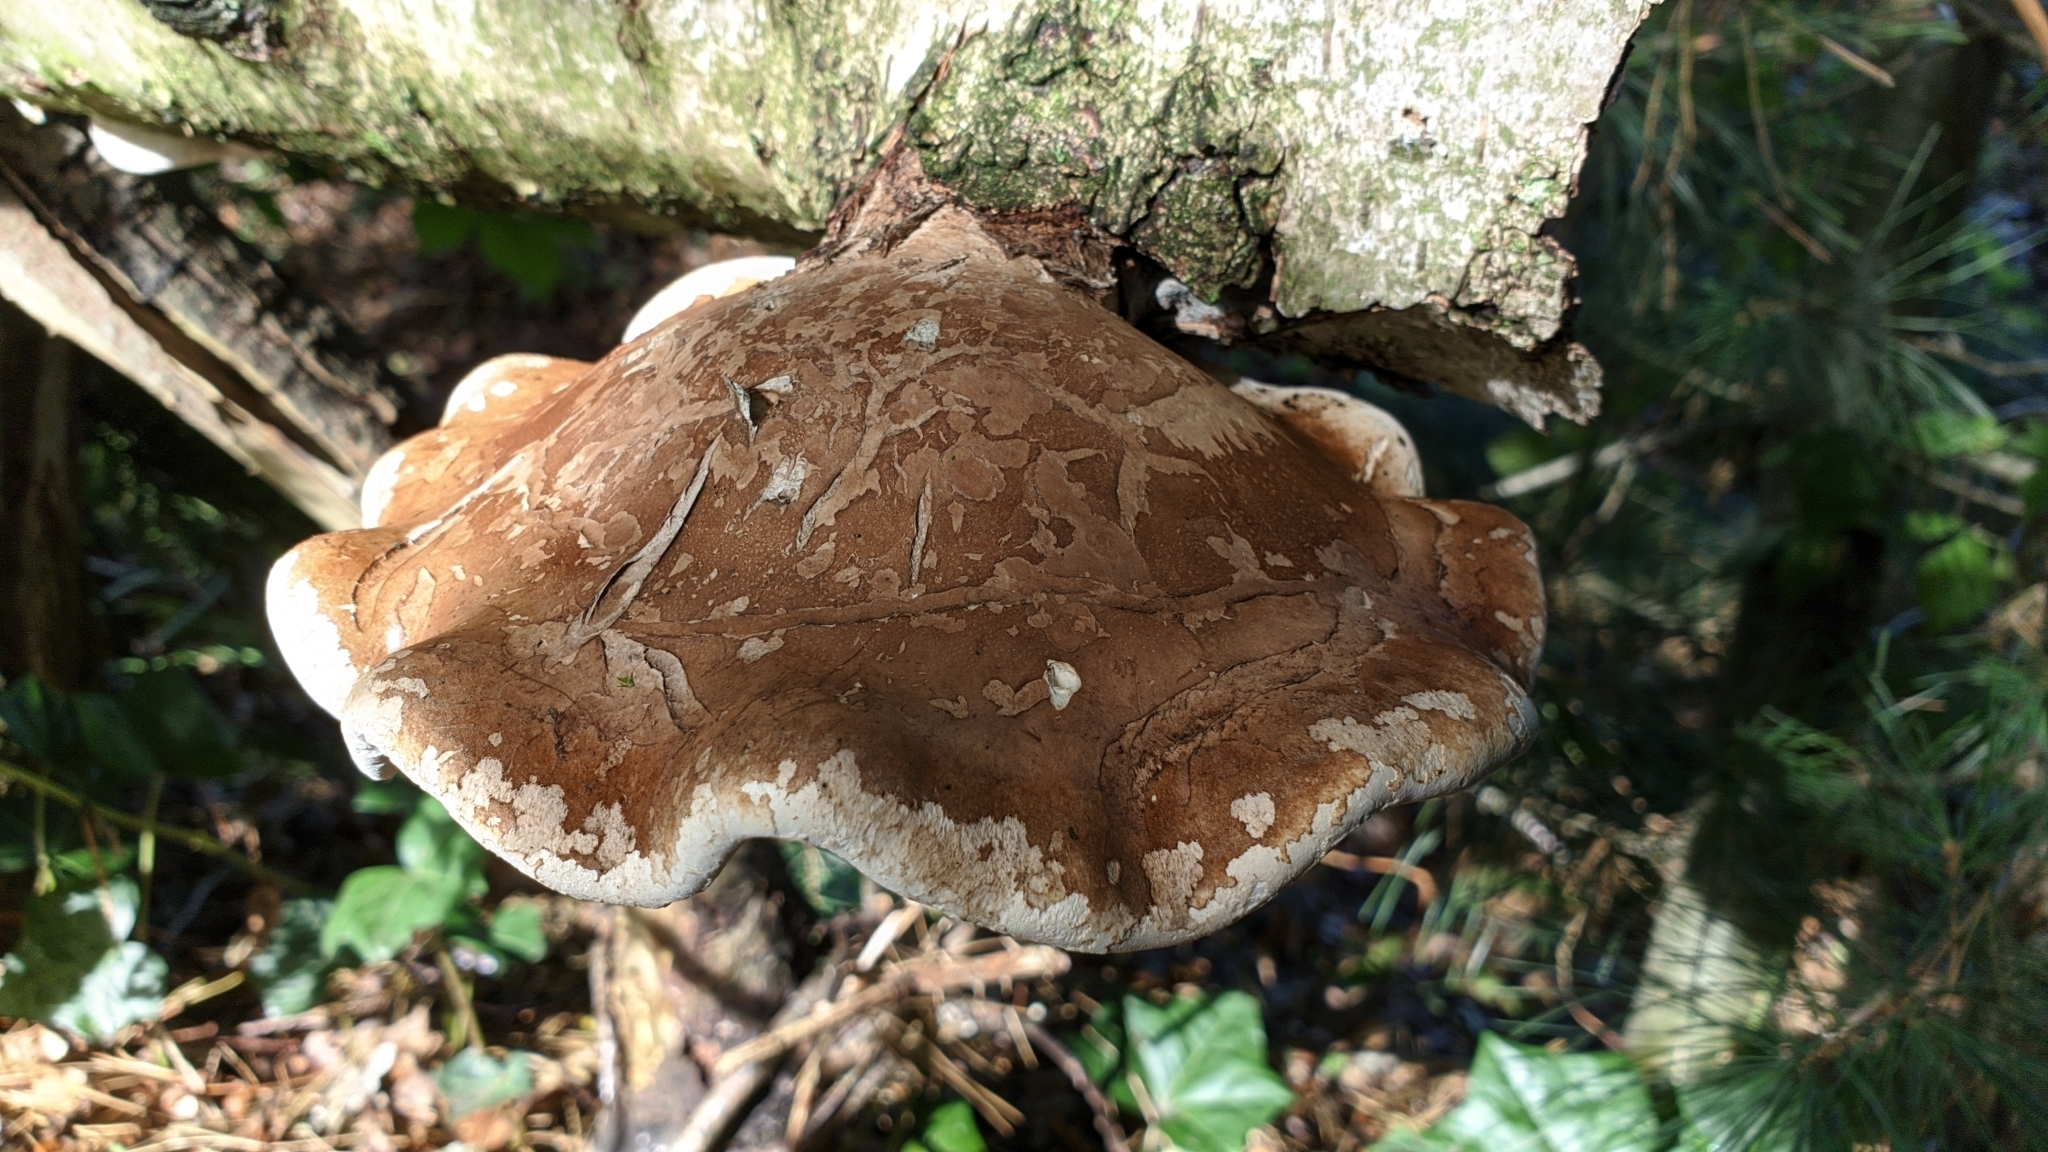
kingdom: Fungi
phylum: Basidiomycota
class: Agaricomycetes
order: Polyporales
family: Fomitopsidaceae
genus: Fomitopsis
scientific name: Fomitopsis betulina
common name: Birch polypore
